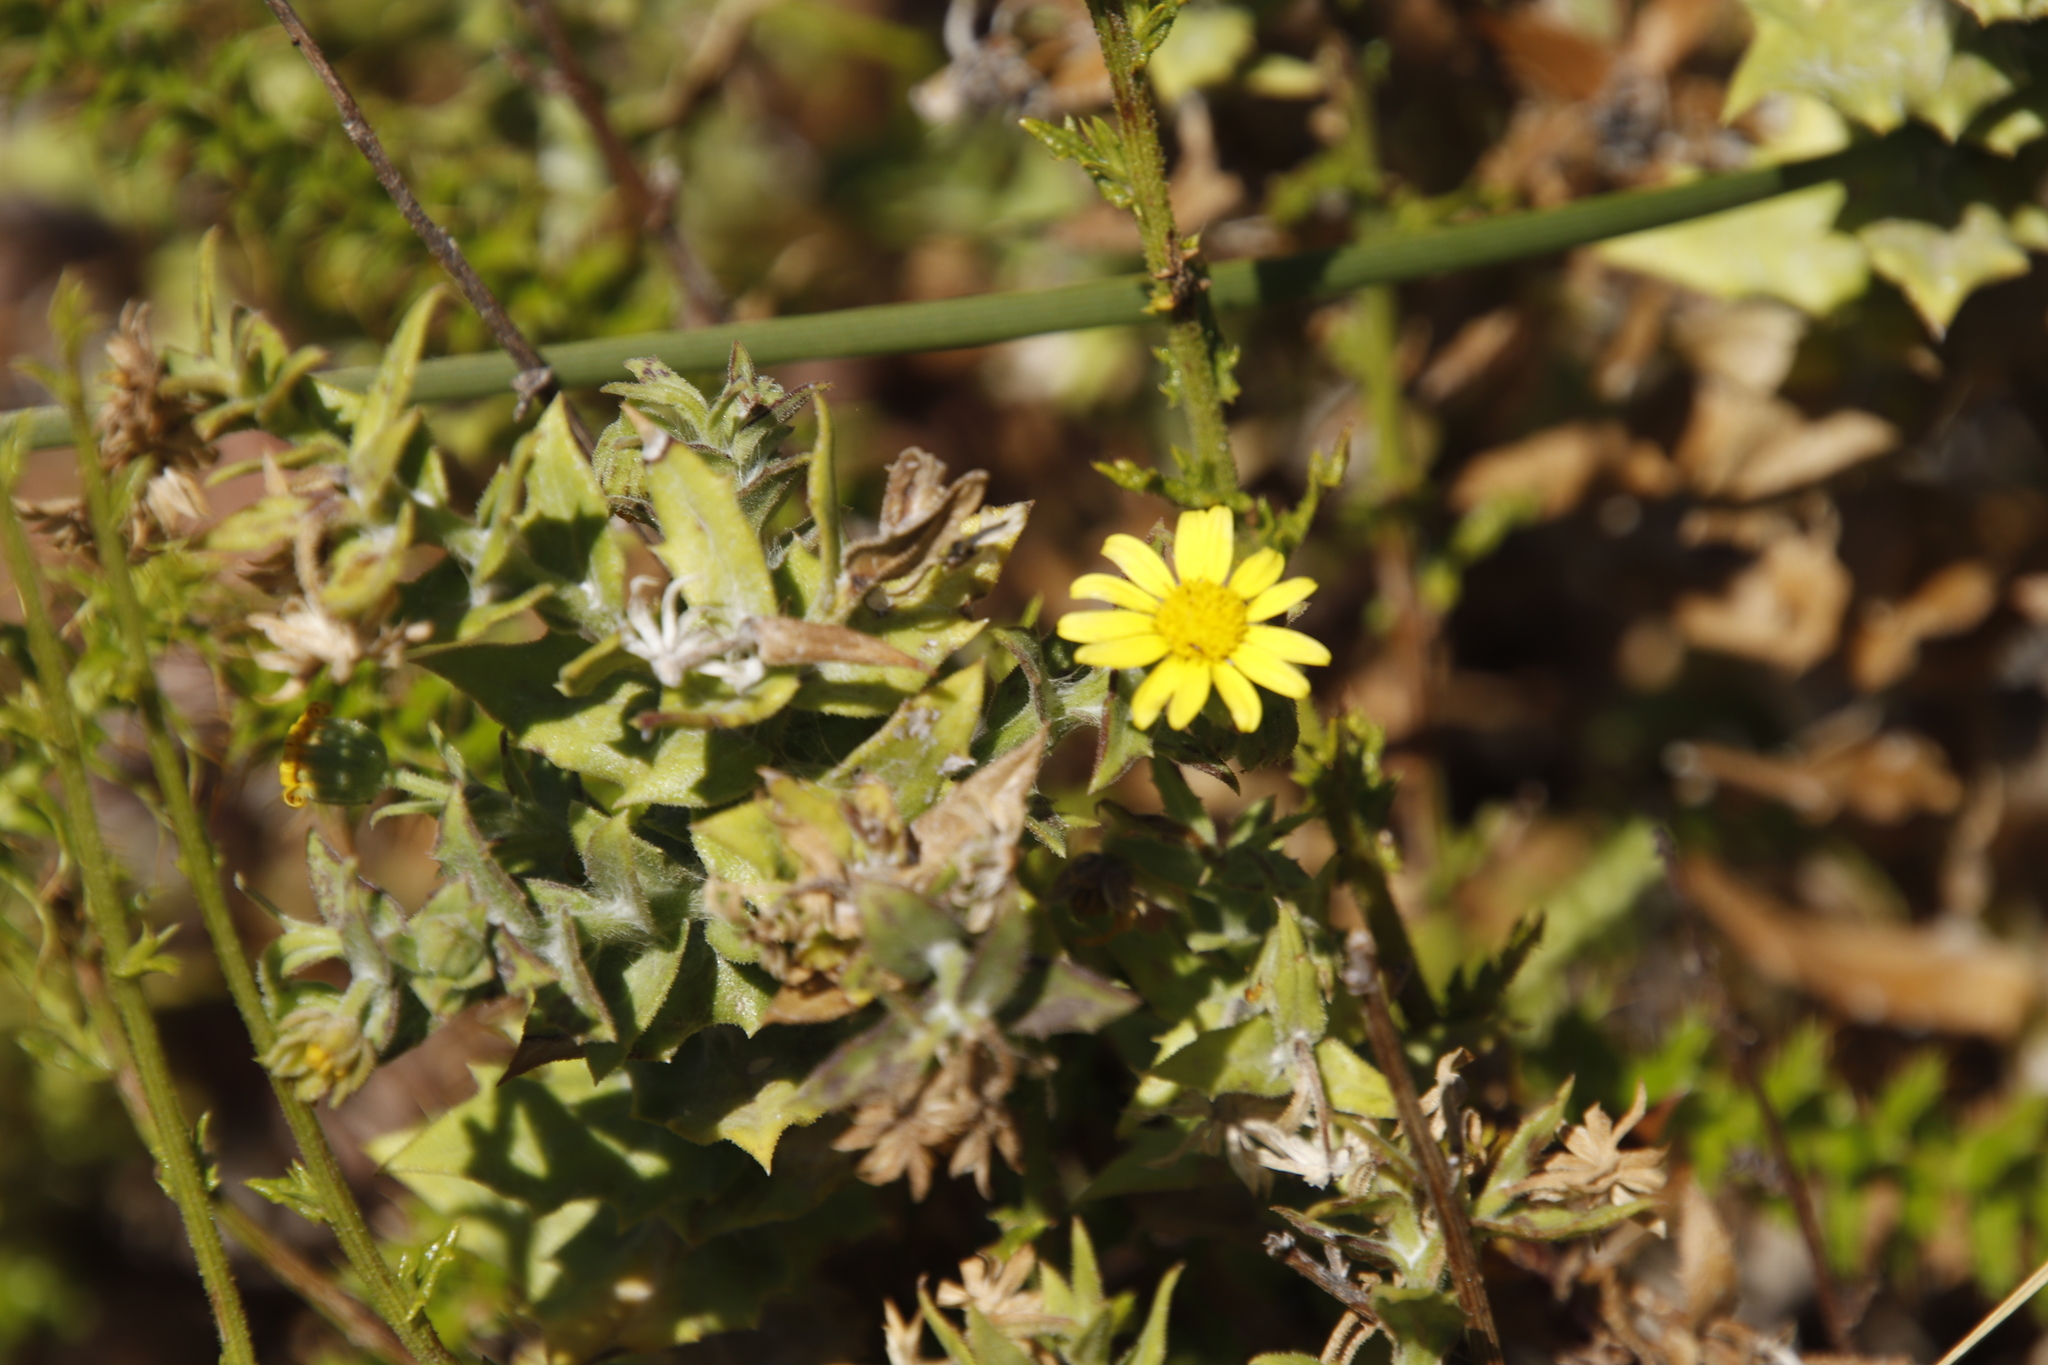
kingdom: Plantae
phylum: Tracheophyta
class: Magnoliopsida
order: Asterales
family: Asteraceae
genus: Osteospermum
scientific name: Osteospermum ilicifolium
